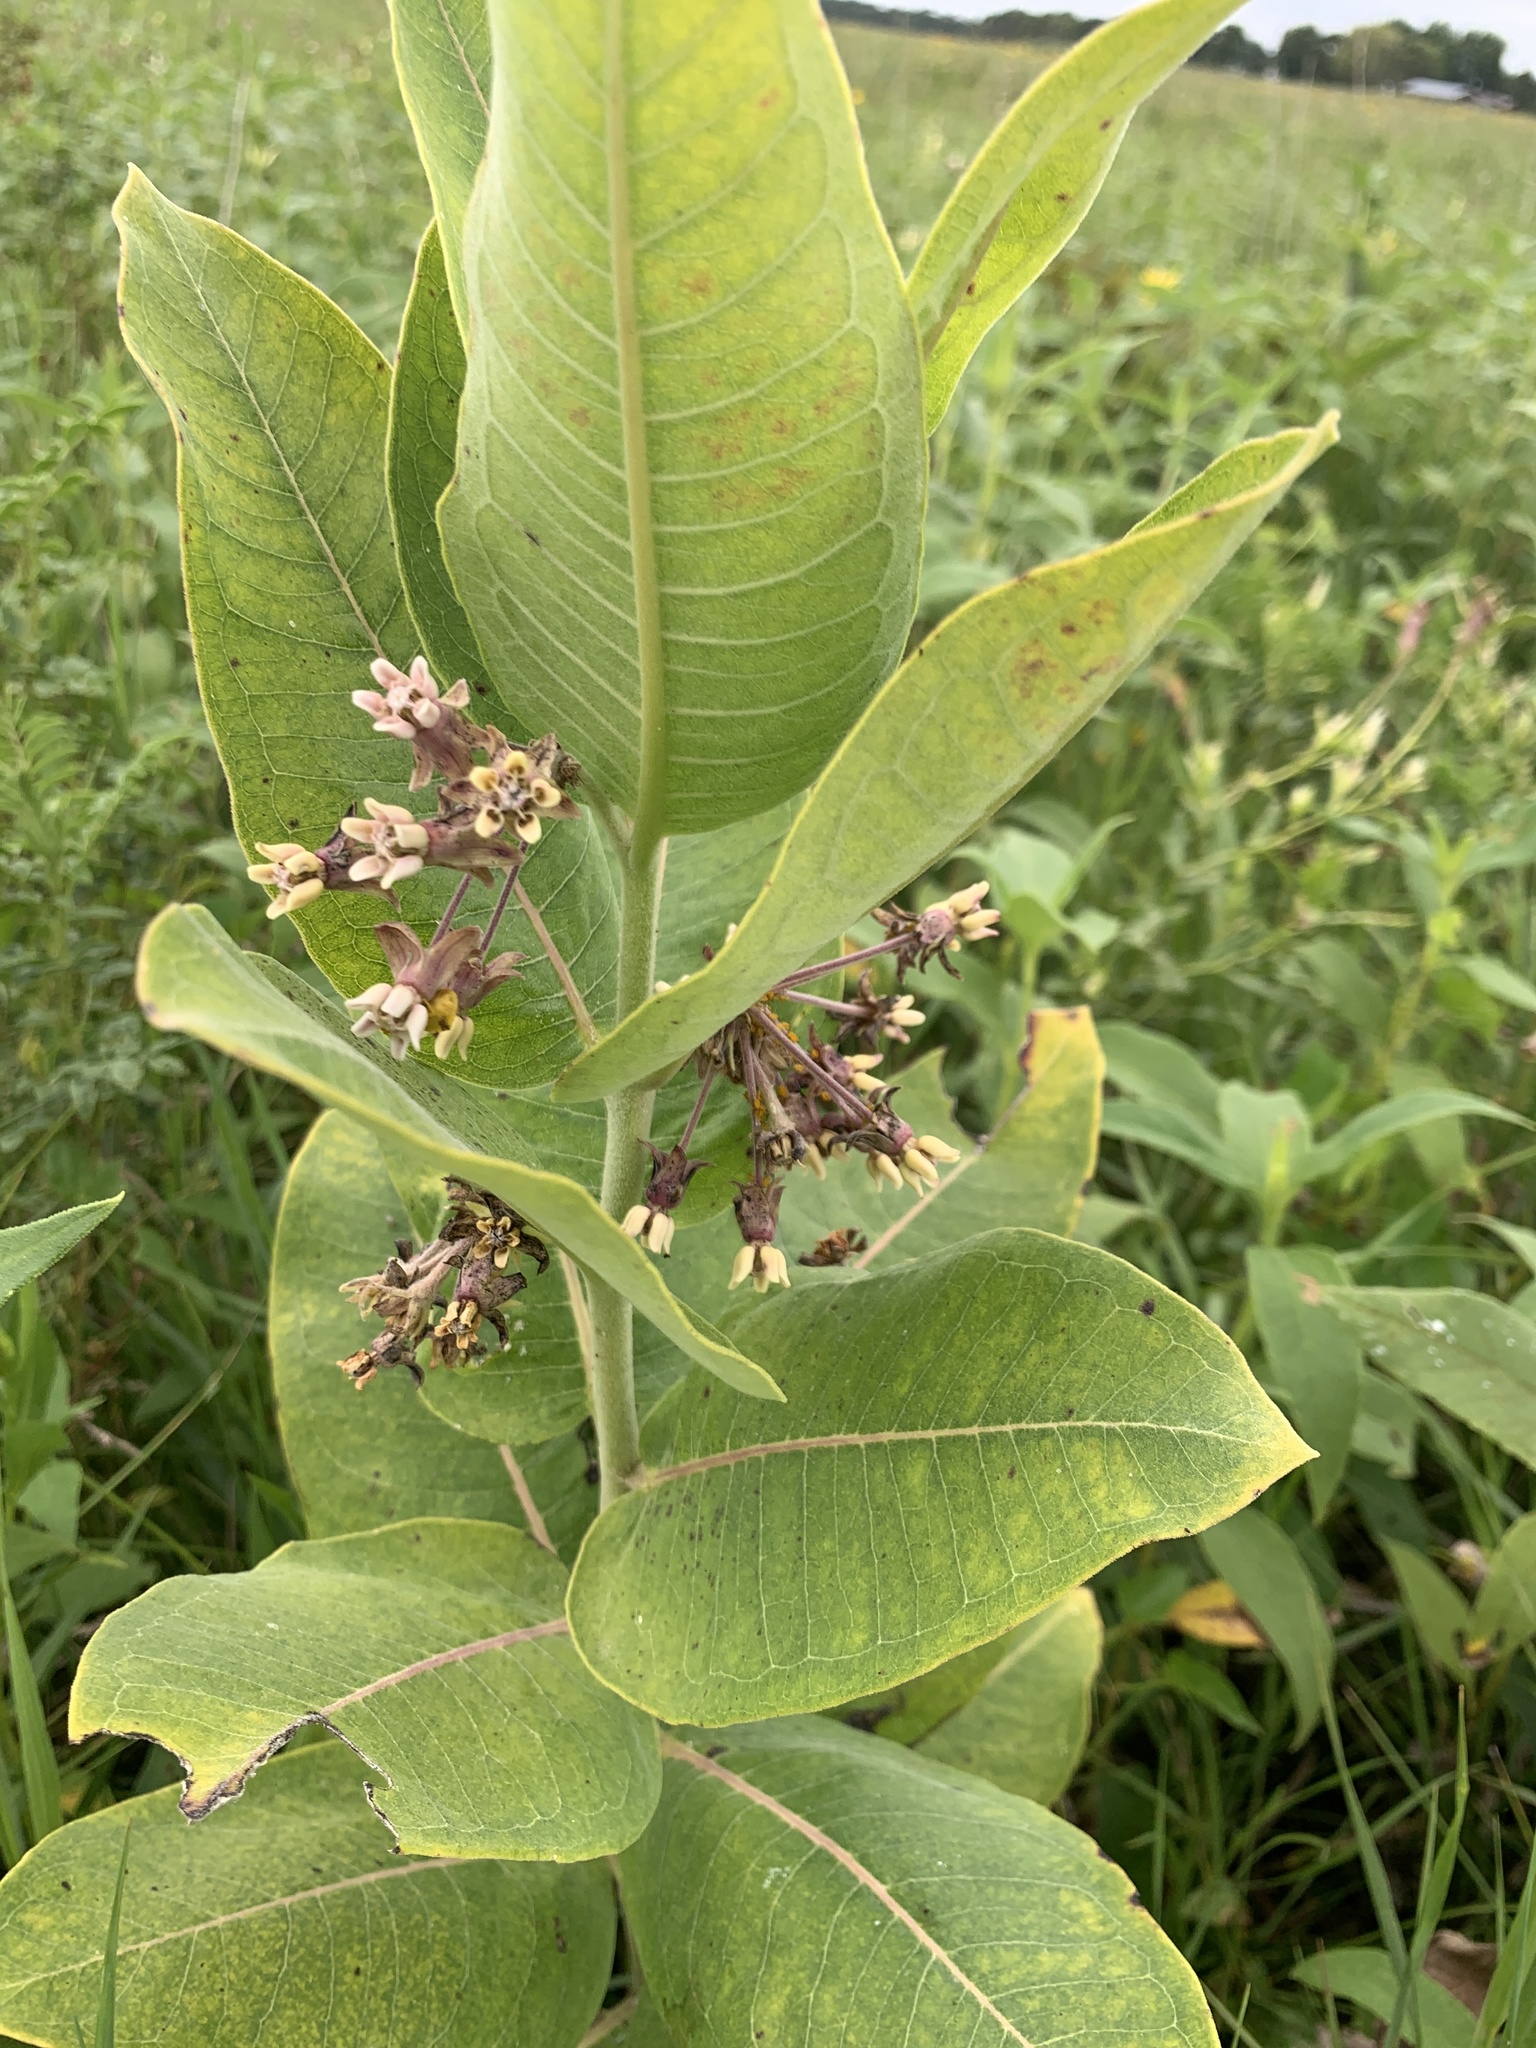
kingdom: Plantae
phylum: Tracheophyta
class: Magnoliopsida
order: Gentianales
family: Apocynaceae
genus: Asclepias
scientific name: Asclepias syriaca
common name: Common milkweed
